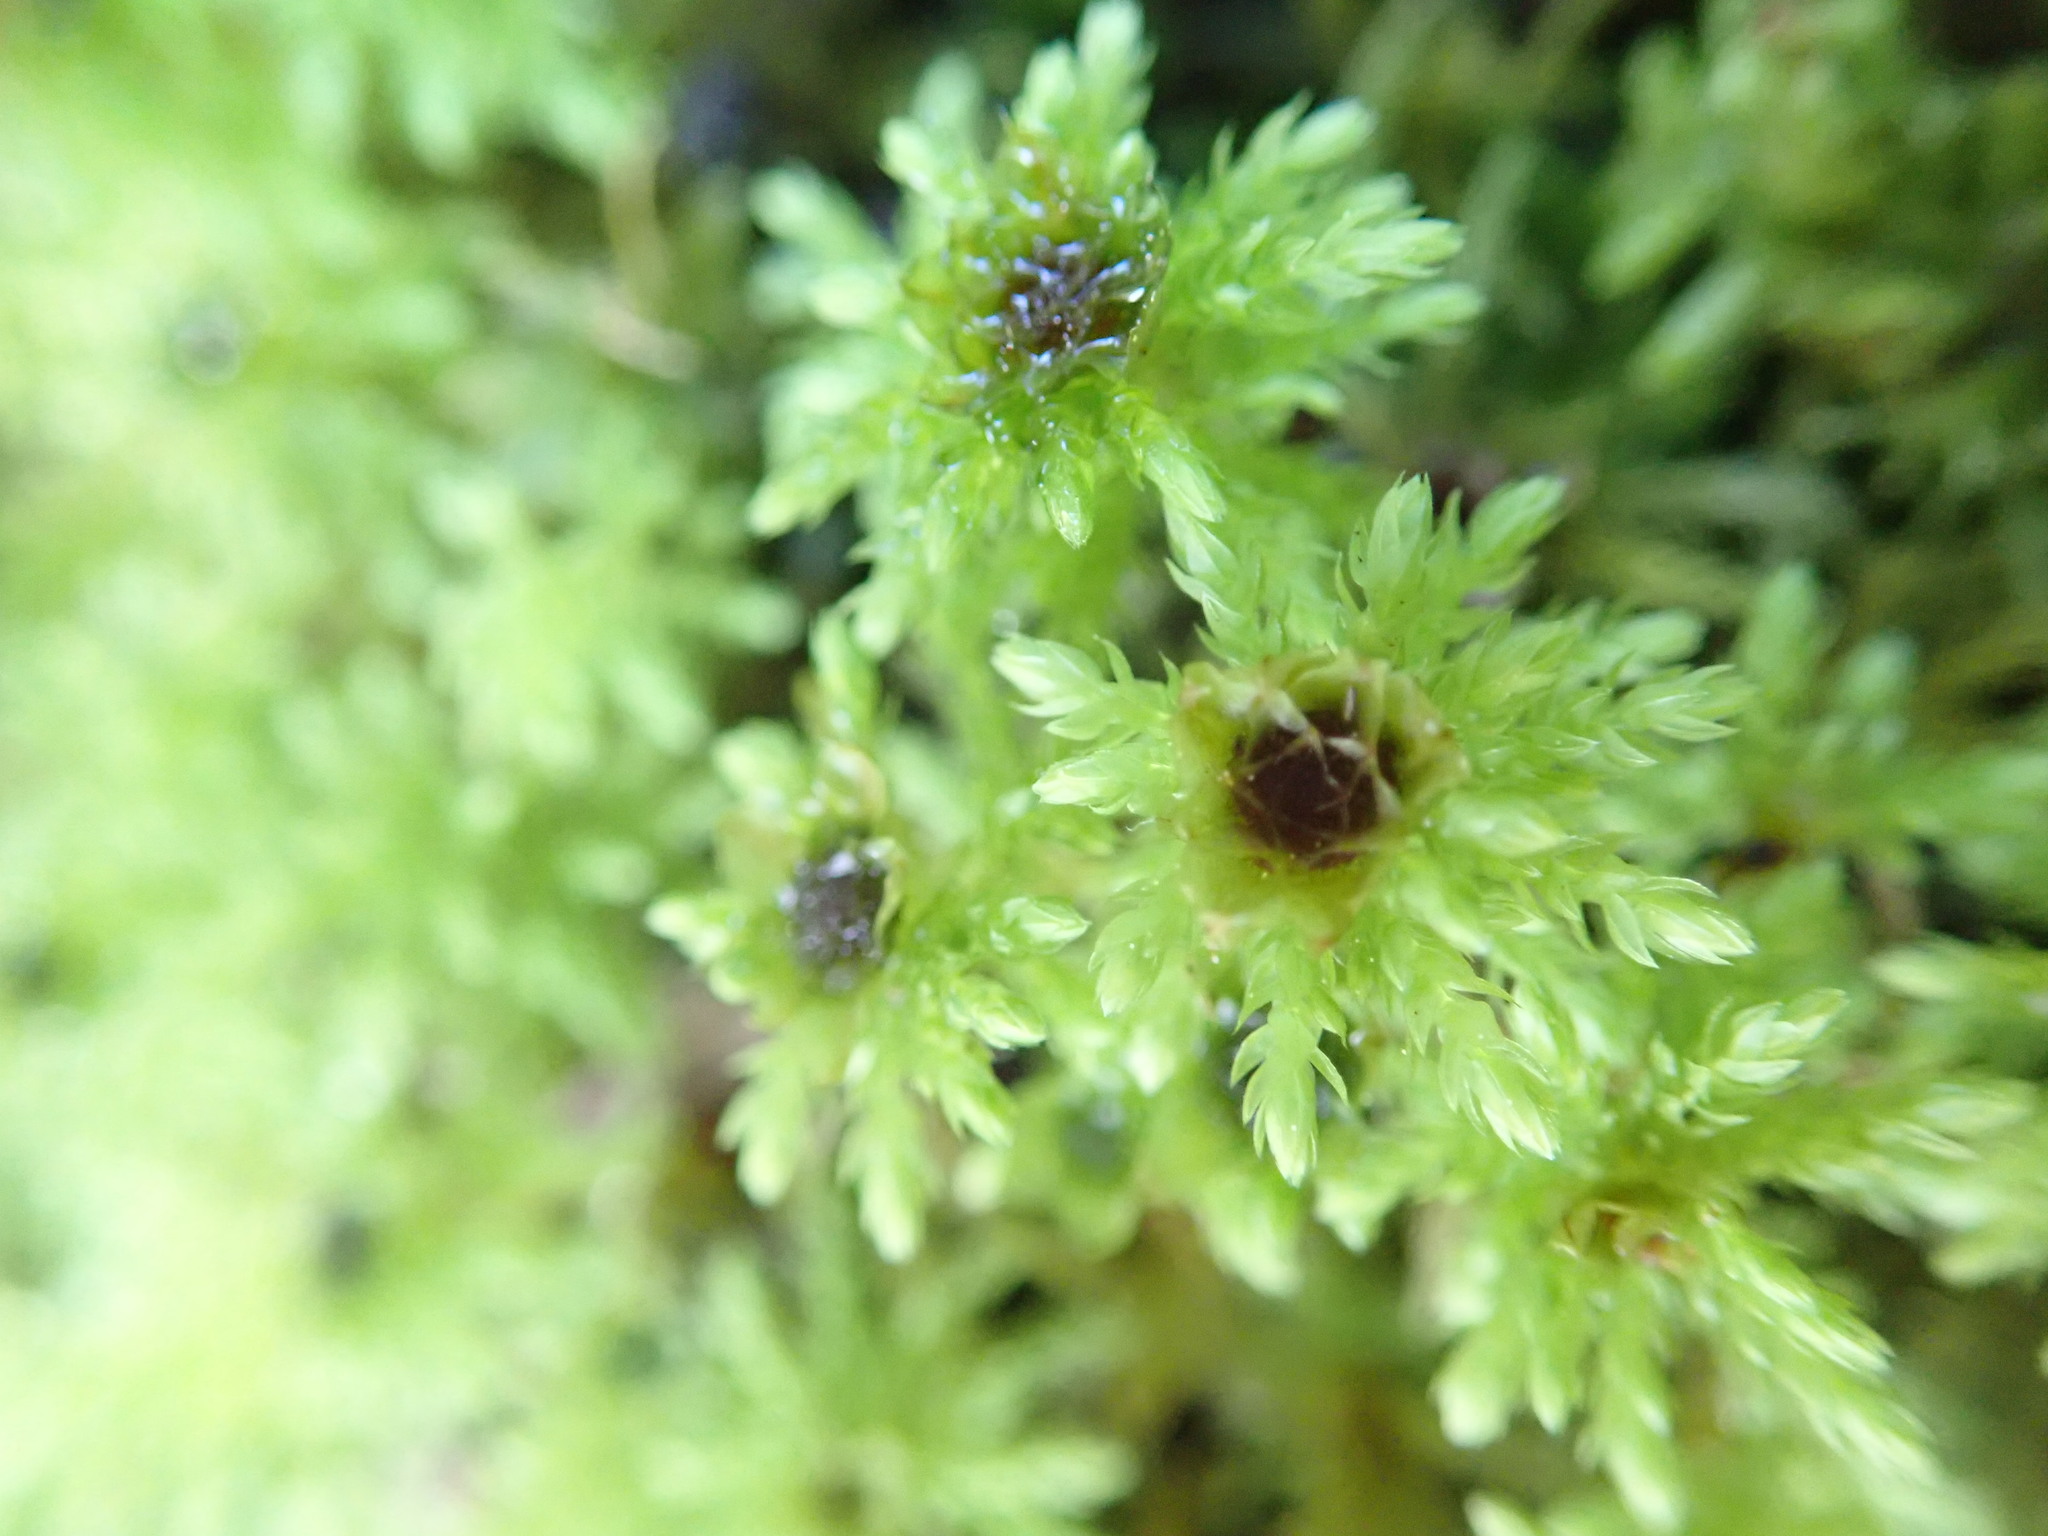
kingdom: Plantae
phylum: Bryophyta
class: Bryopsida
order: Bryales
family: Mniaceae
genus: Leucolepis
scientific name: Leucolepis acanthoneura
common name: Leucolepis umbrella moss
